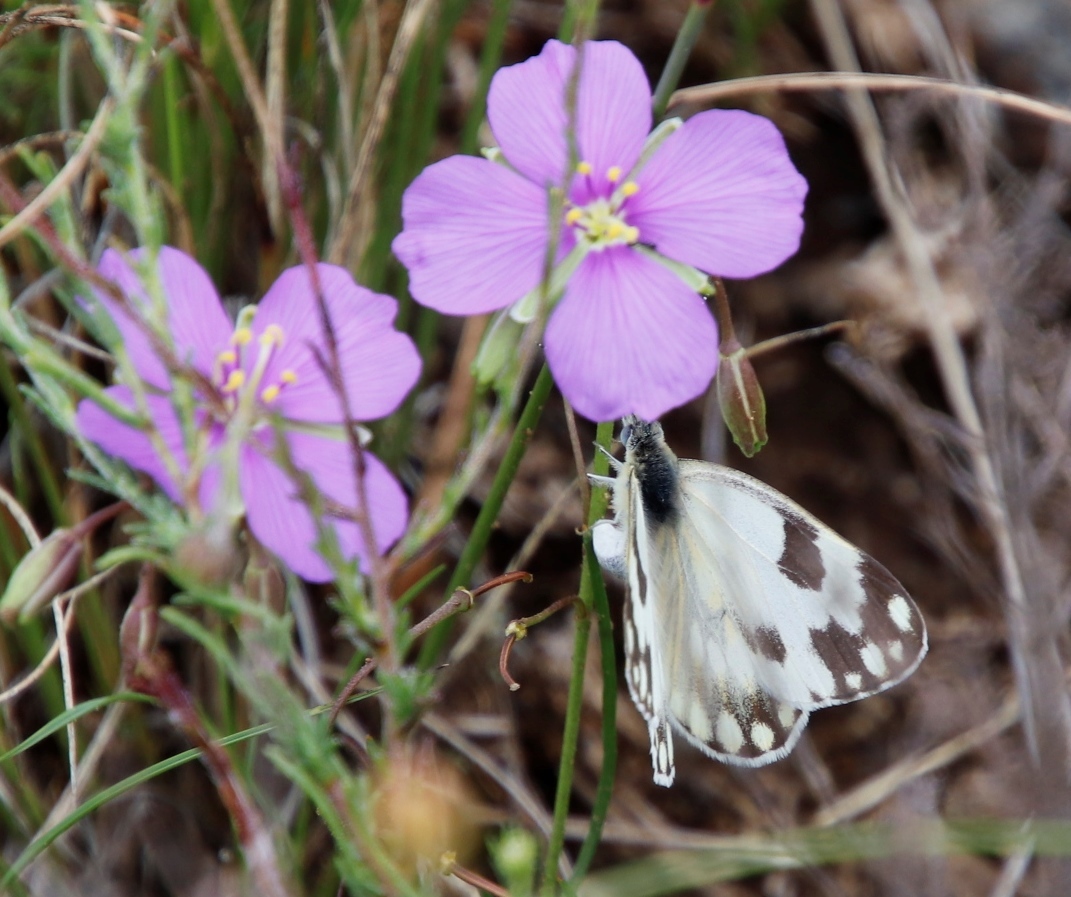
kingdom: Animalia
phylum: Arthropoda
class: Insecta
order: Lepidoptera
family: Pieridae
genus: Pontia
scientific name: Pontia helice
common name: Meadow white
